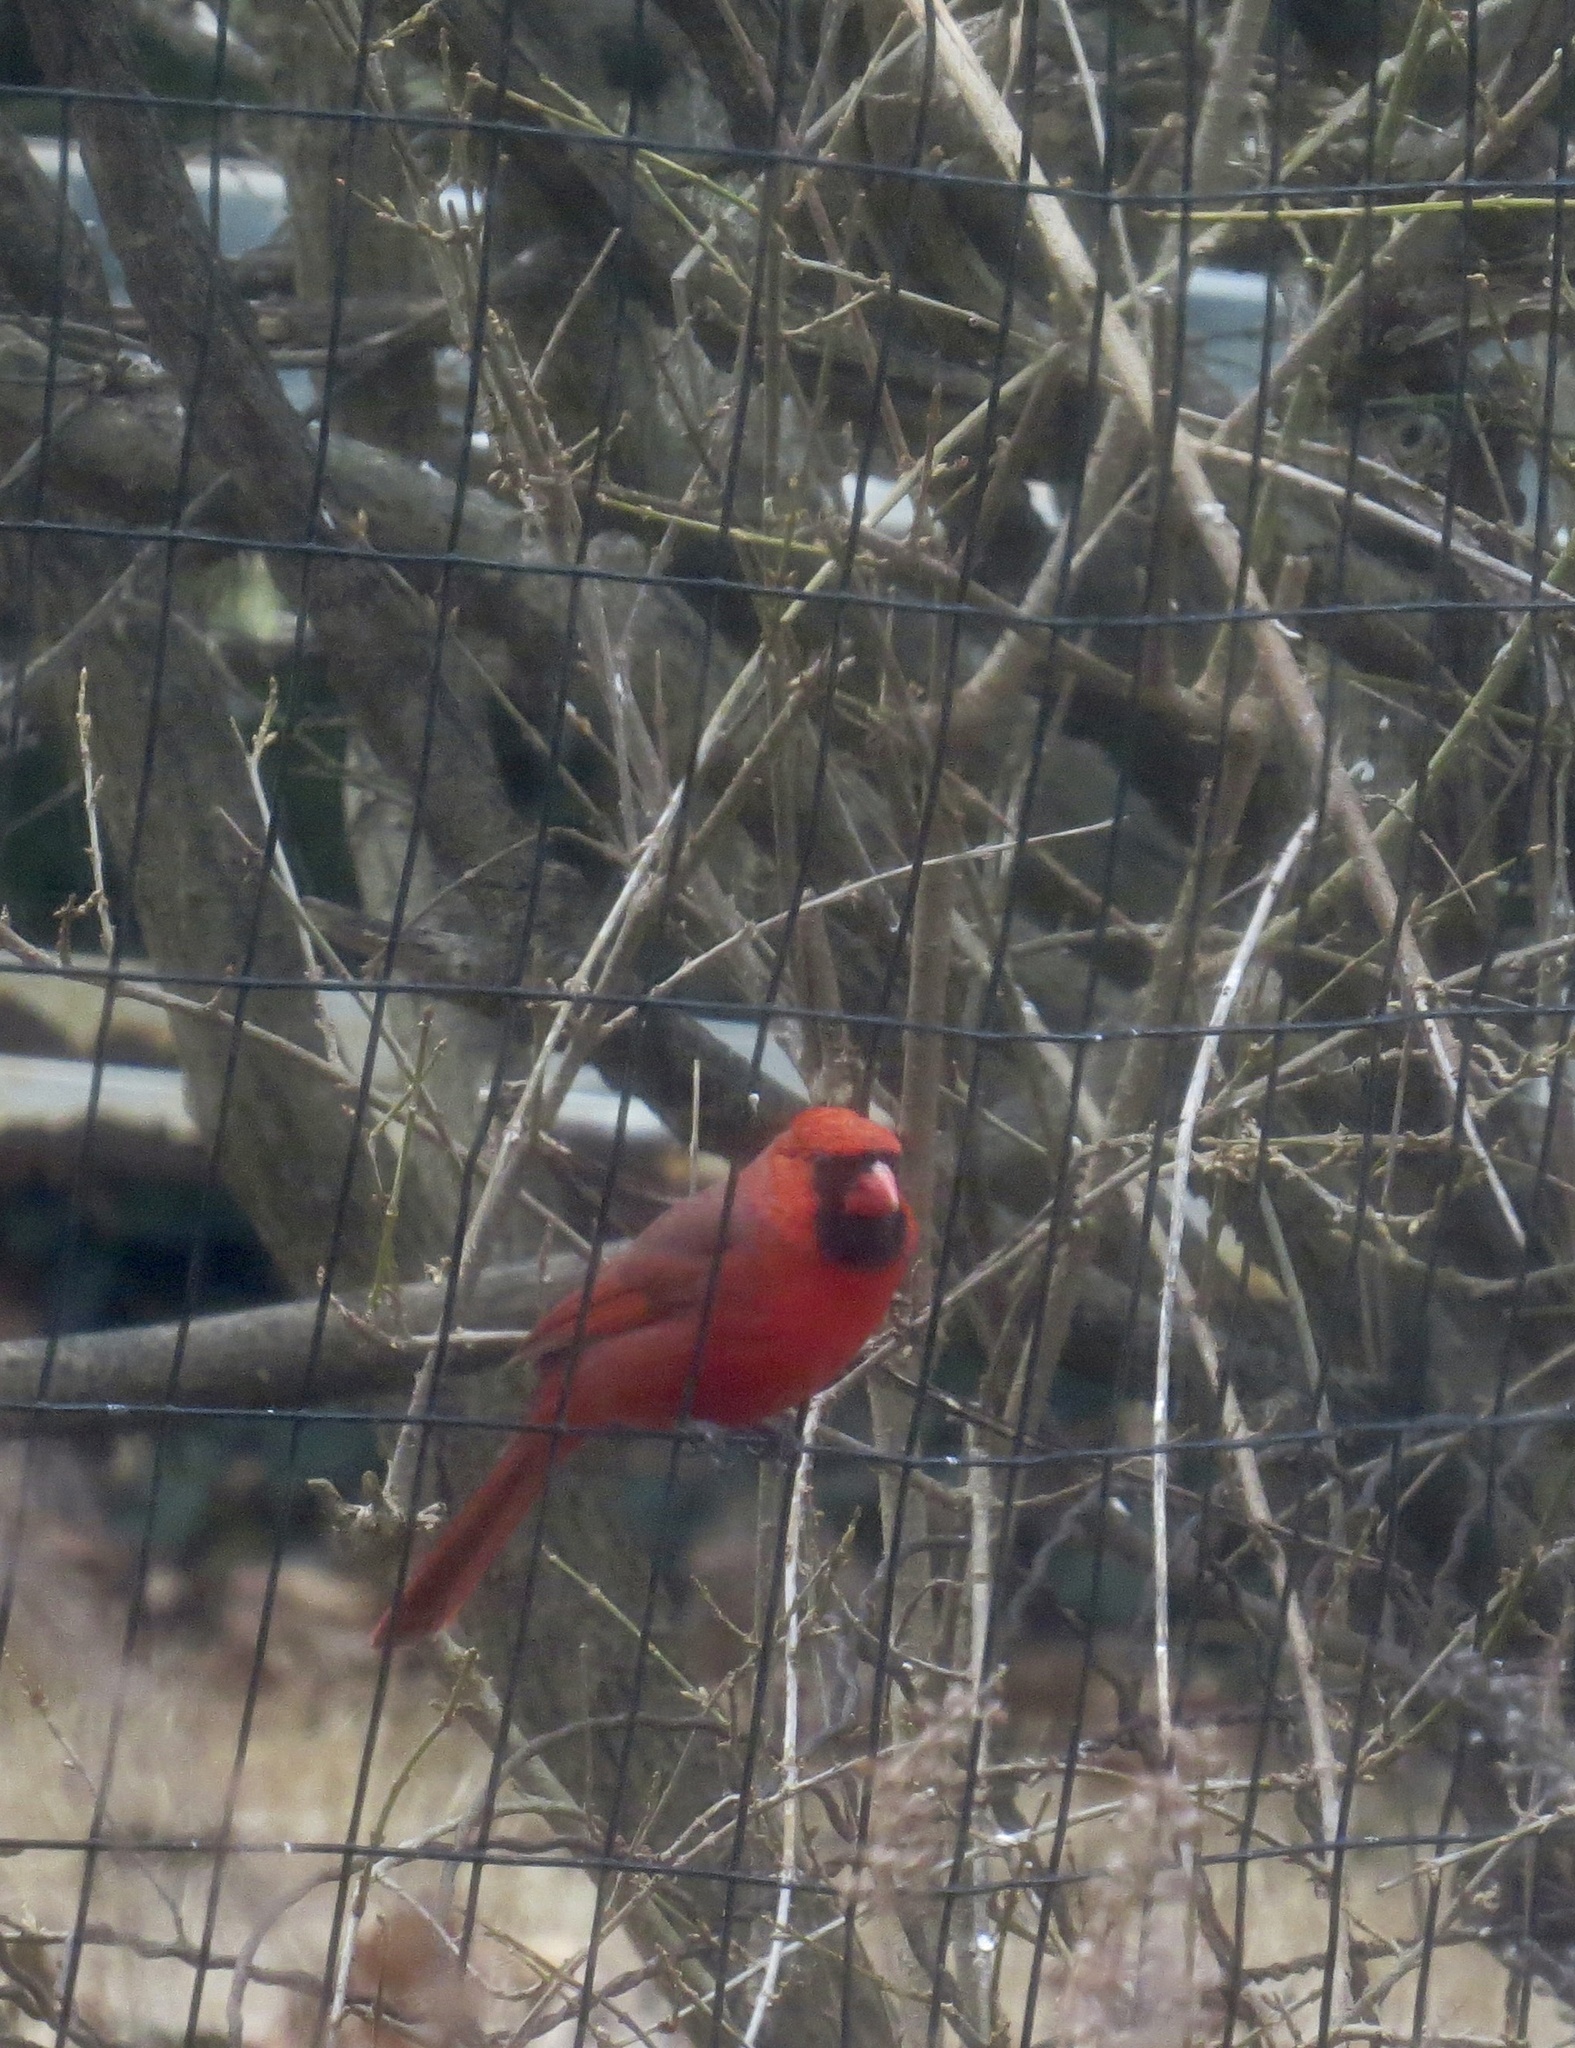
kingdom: Animalia
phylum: Chordata
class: Aves
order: Passeriformes
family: Cardinalidae
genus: Cardinalis
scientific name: Cardinalis cardinalis
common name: Northern cardinal
